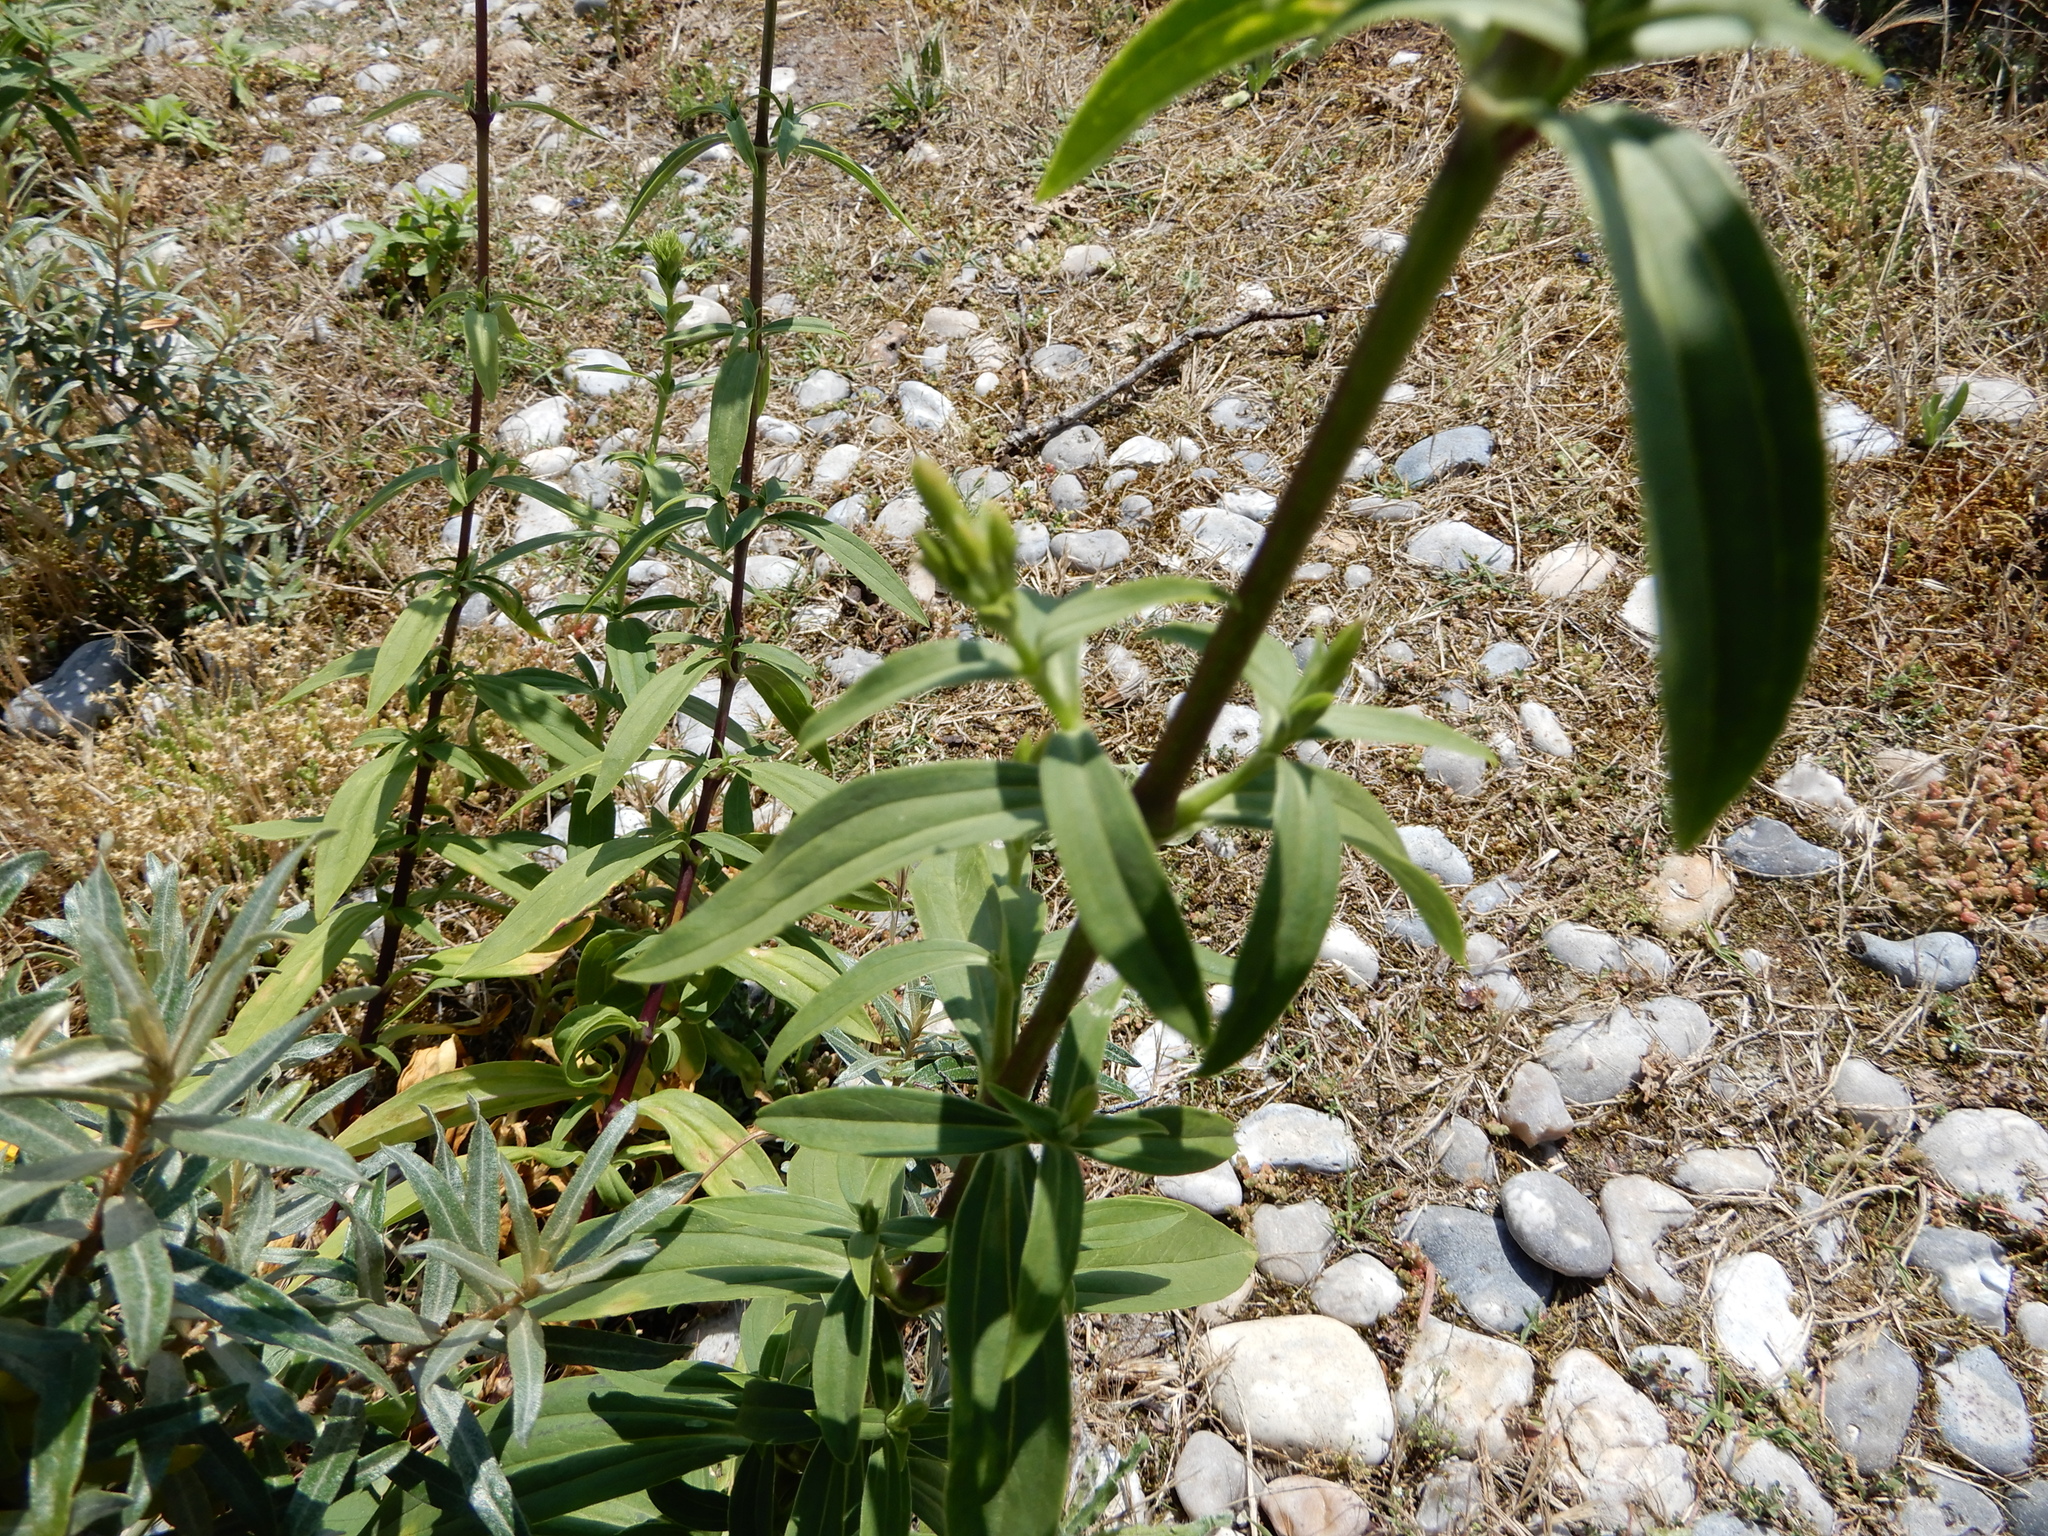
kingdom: Plantae
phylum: Tracheophyta
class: Magnoliopsida
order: Caryophyllales
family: Caryophyllaceae
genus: Saponaria
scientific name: Saponaria officinalis
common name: Soapwort
